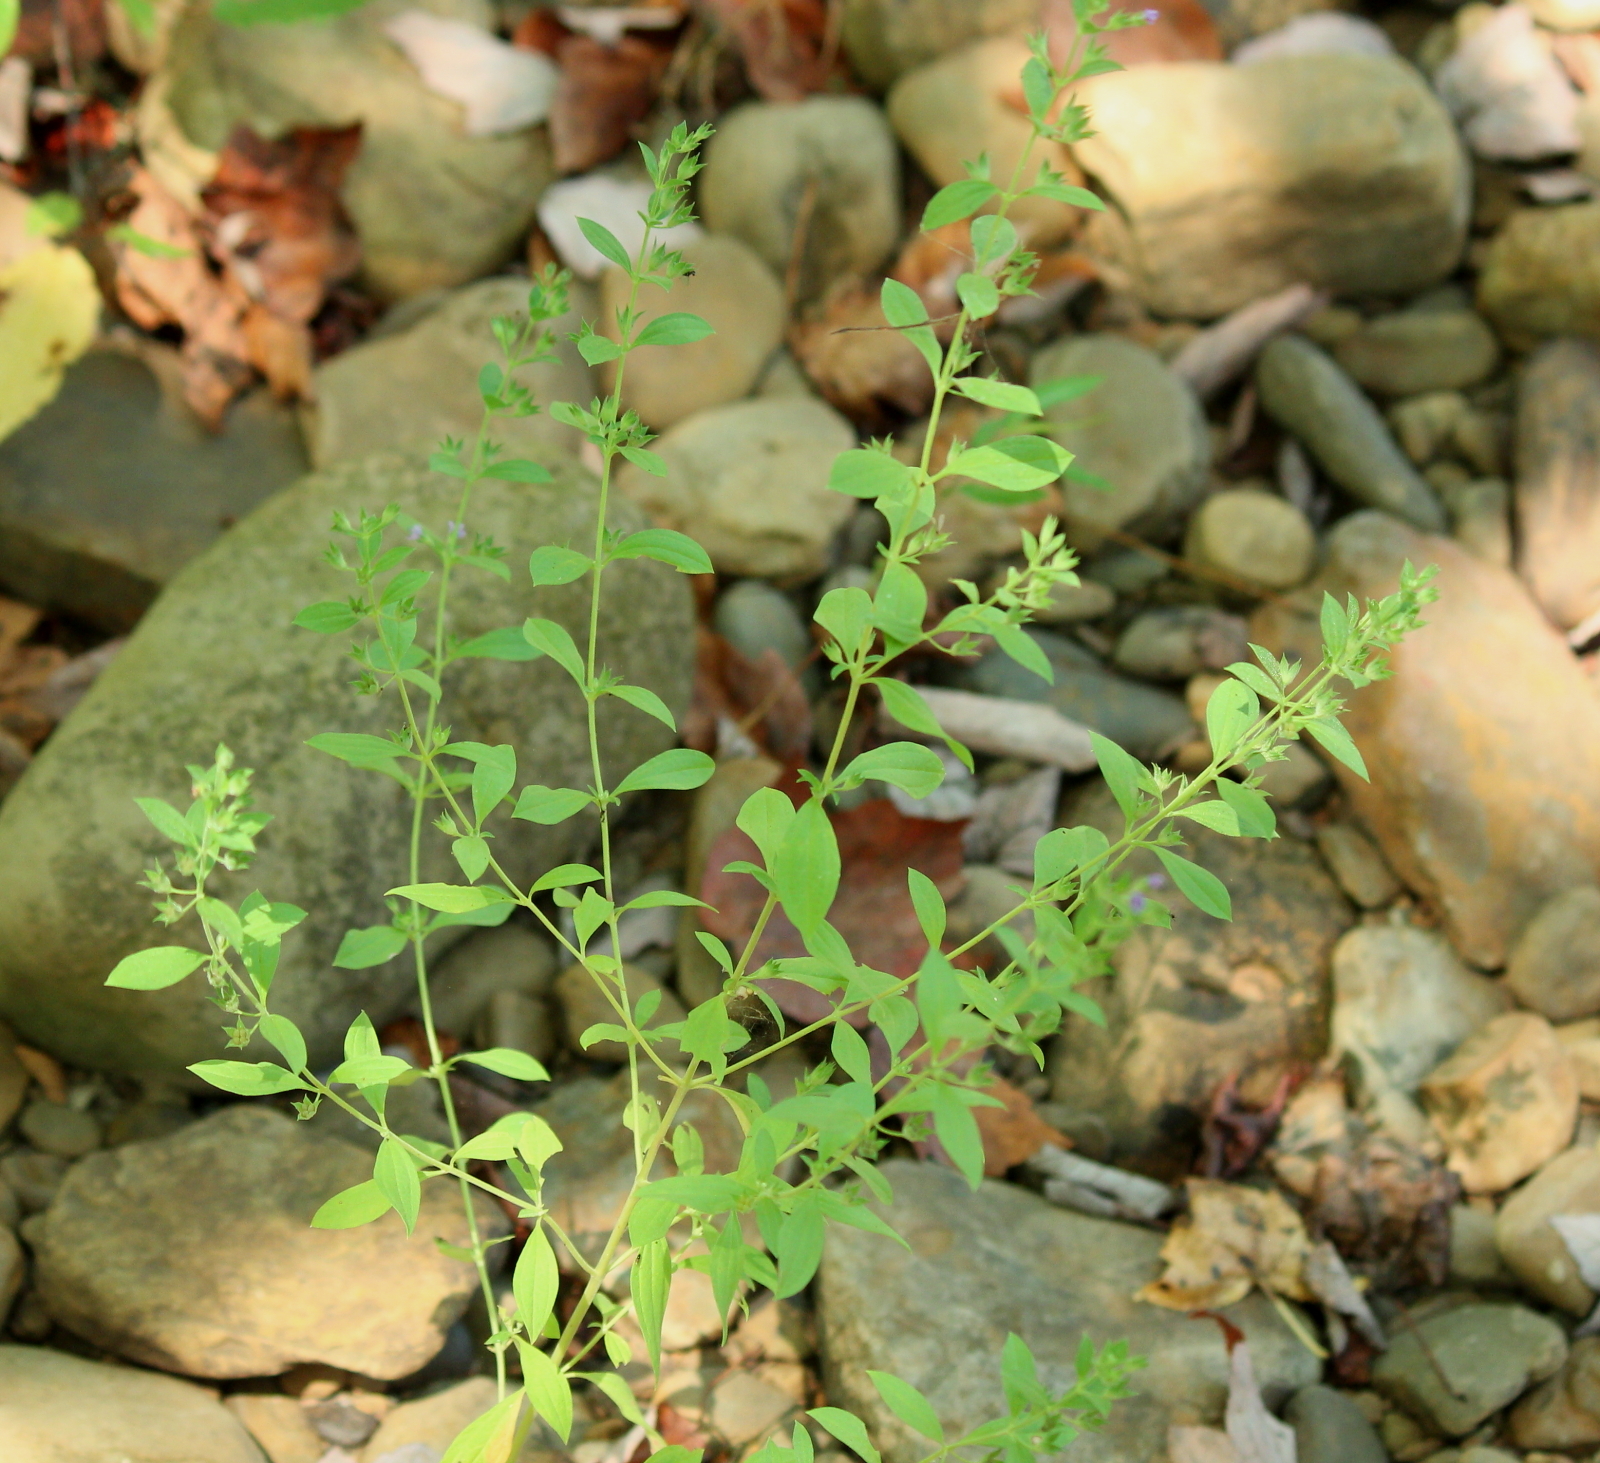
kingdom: Plantae
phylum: Tracheophyta
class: Magnoliopsida
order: Lamiales
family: Lamiaceae
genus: Trichostema
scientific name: Trichostema brachiatum
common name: False pennyroyal
